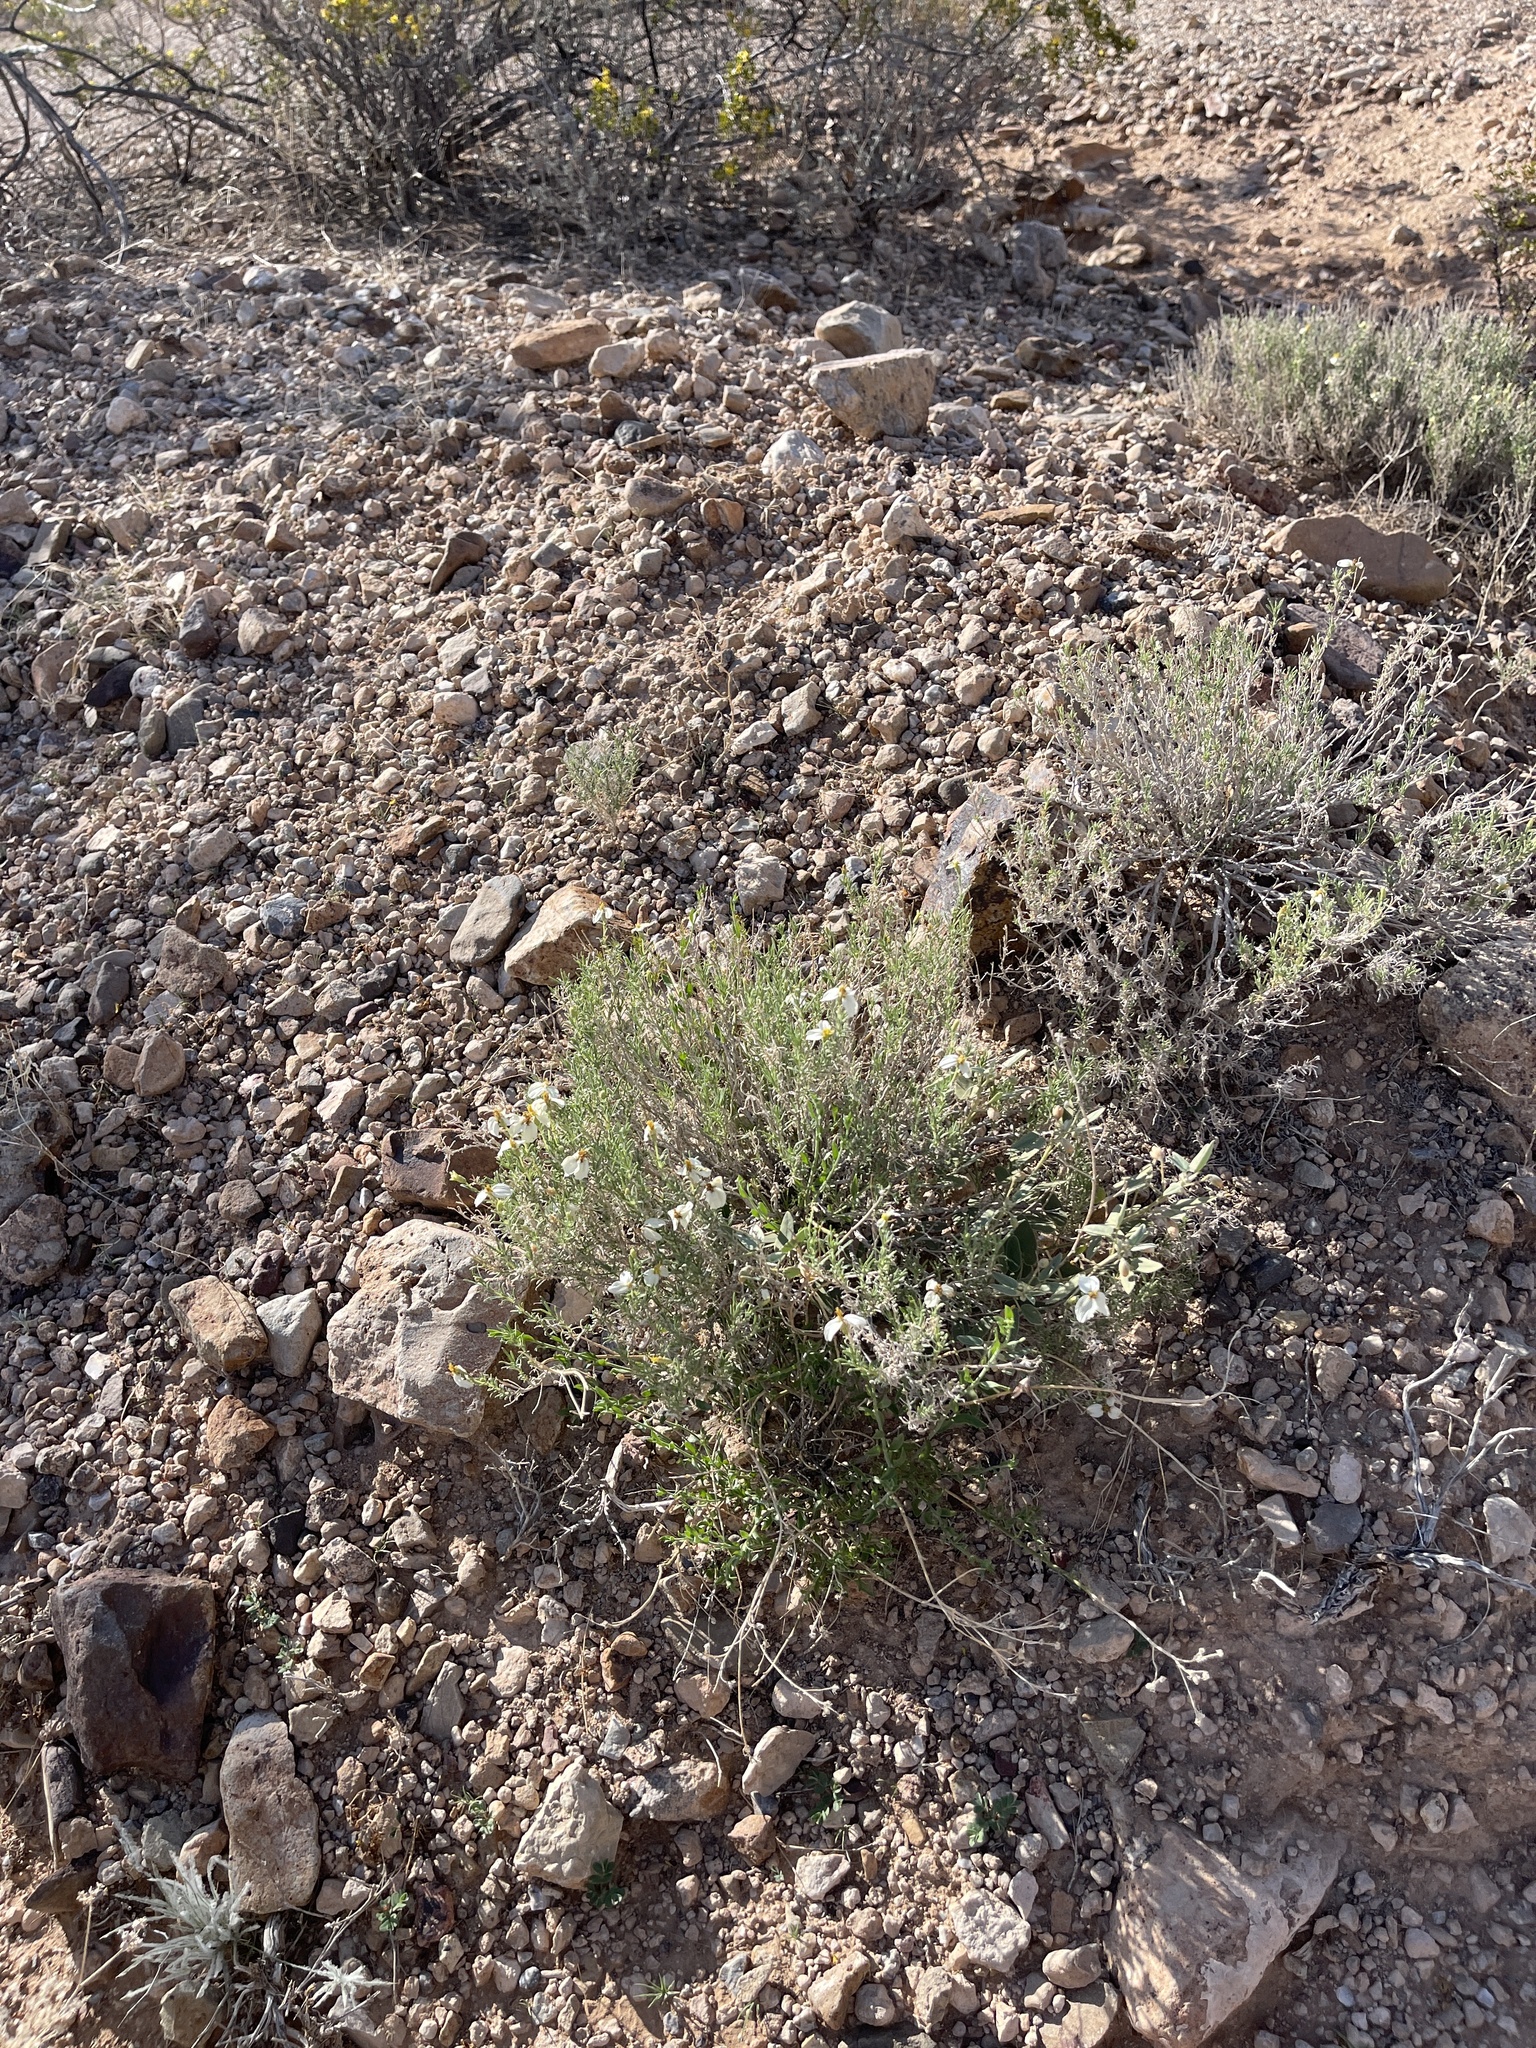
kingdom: Plantae
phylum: Tracheophyta
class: Magnoliopsida
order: Asterales
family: Asteraceae
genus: Zinnia
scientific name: Zinnia acerosa
